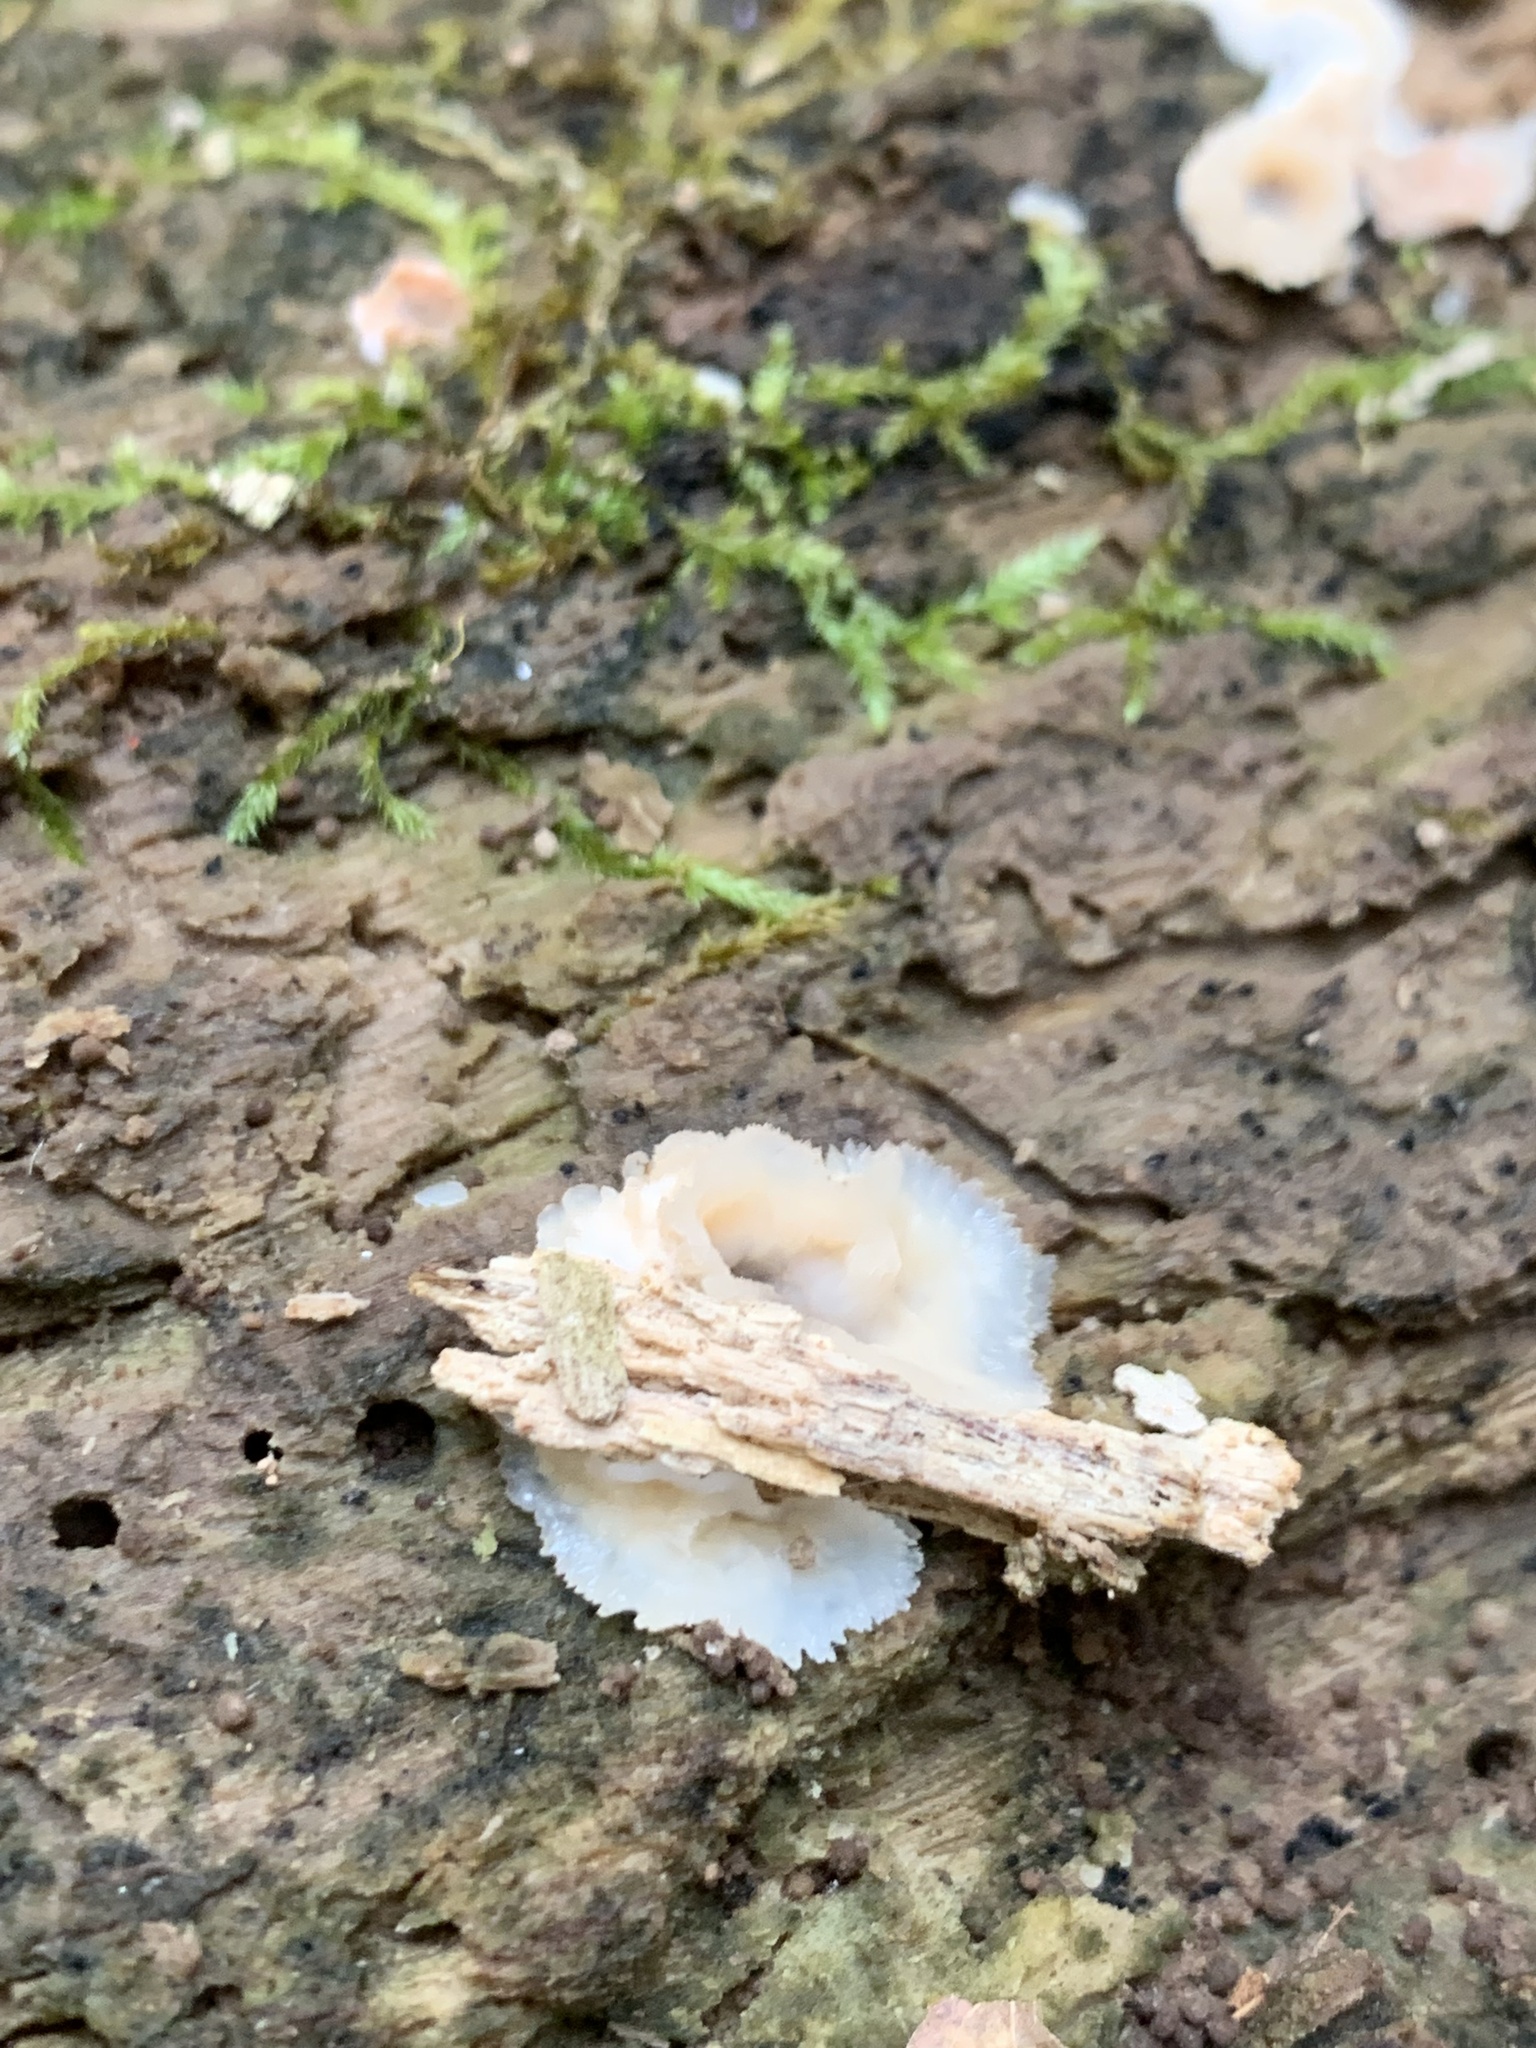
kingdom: Fungi
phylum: Basidiomycota
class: Agaricomycetes
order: Polyporales
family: Meruliaceae
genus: Phlebia
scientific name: Phlebia tremellosa
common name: Jelly rot
